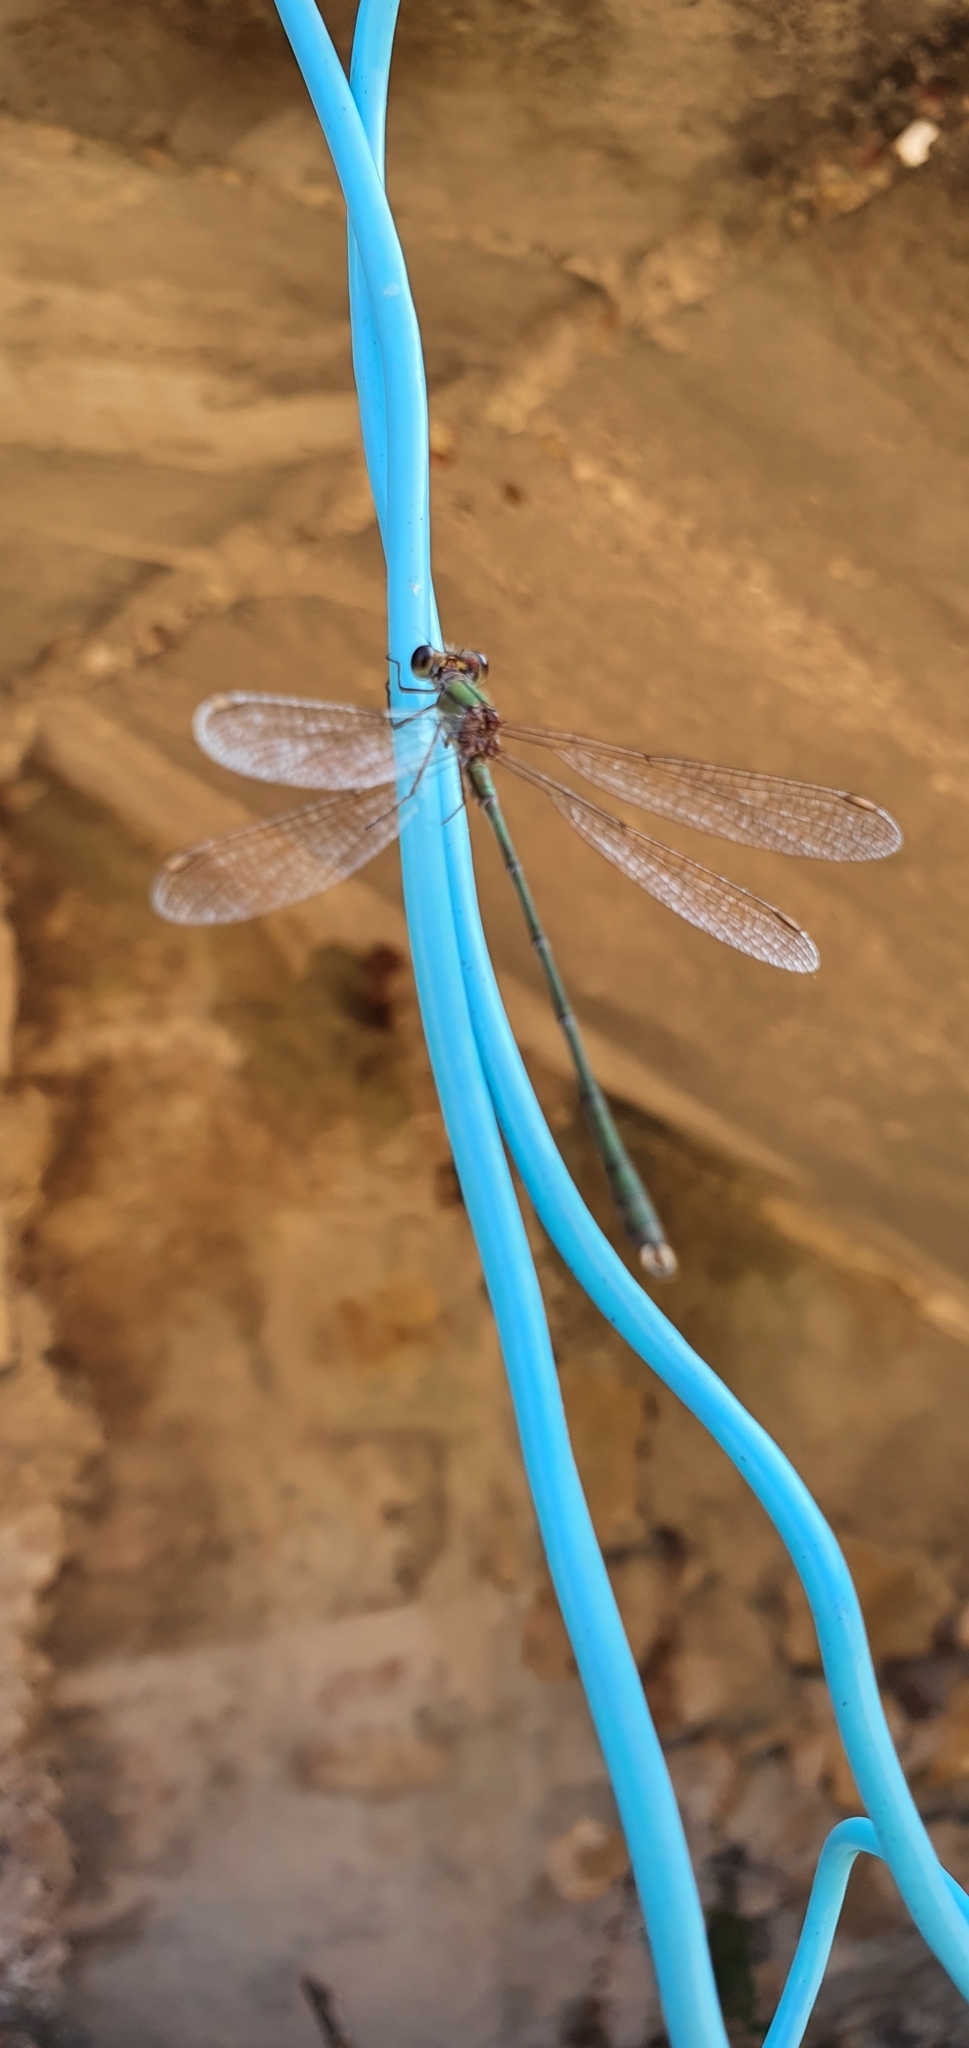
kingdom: Animalia
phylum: Arthropoda
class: Insecta
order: Odonata
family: Lestidae
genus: Chalcolestes
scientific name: Chalcolestes viridis
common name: Green emerald damselfly
